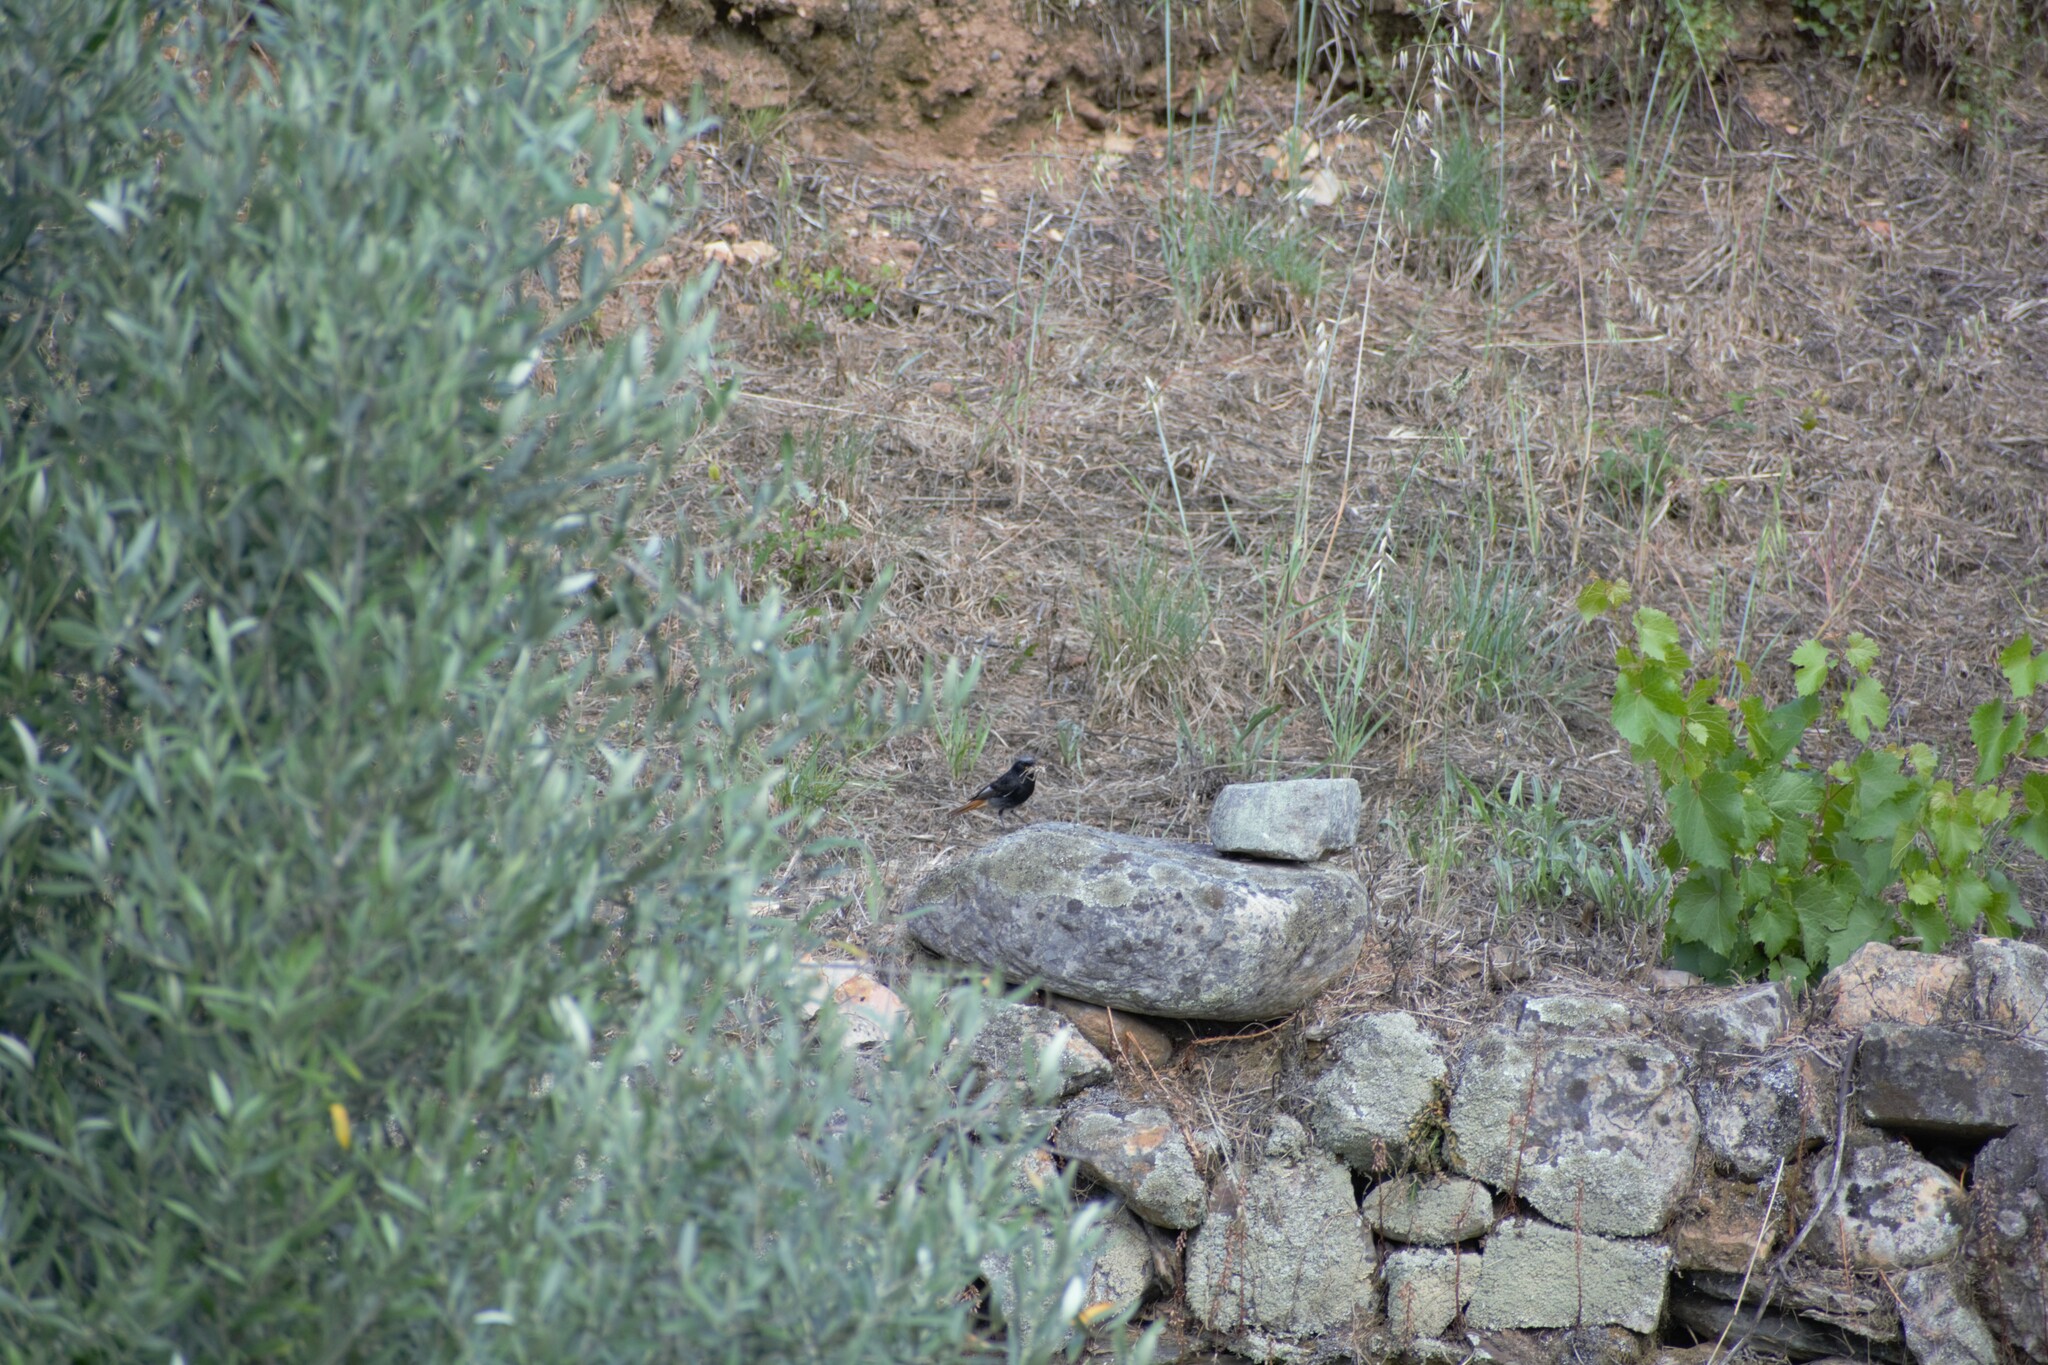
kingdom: Animalia
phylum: Chordata
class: Aves
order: Passeriformes
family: Muscicapidae
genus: Phoenicurus
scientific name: Phoenicurus ochruros
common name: Black redstart
